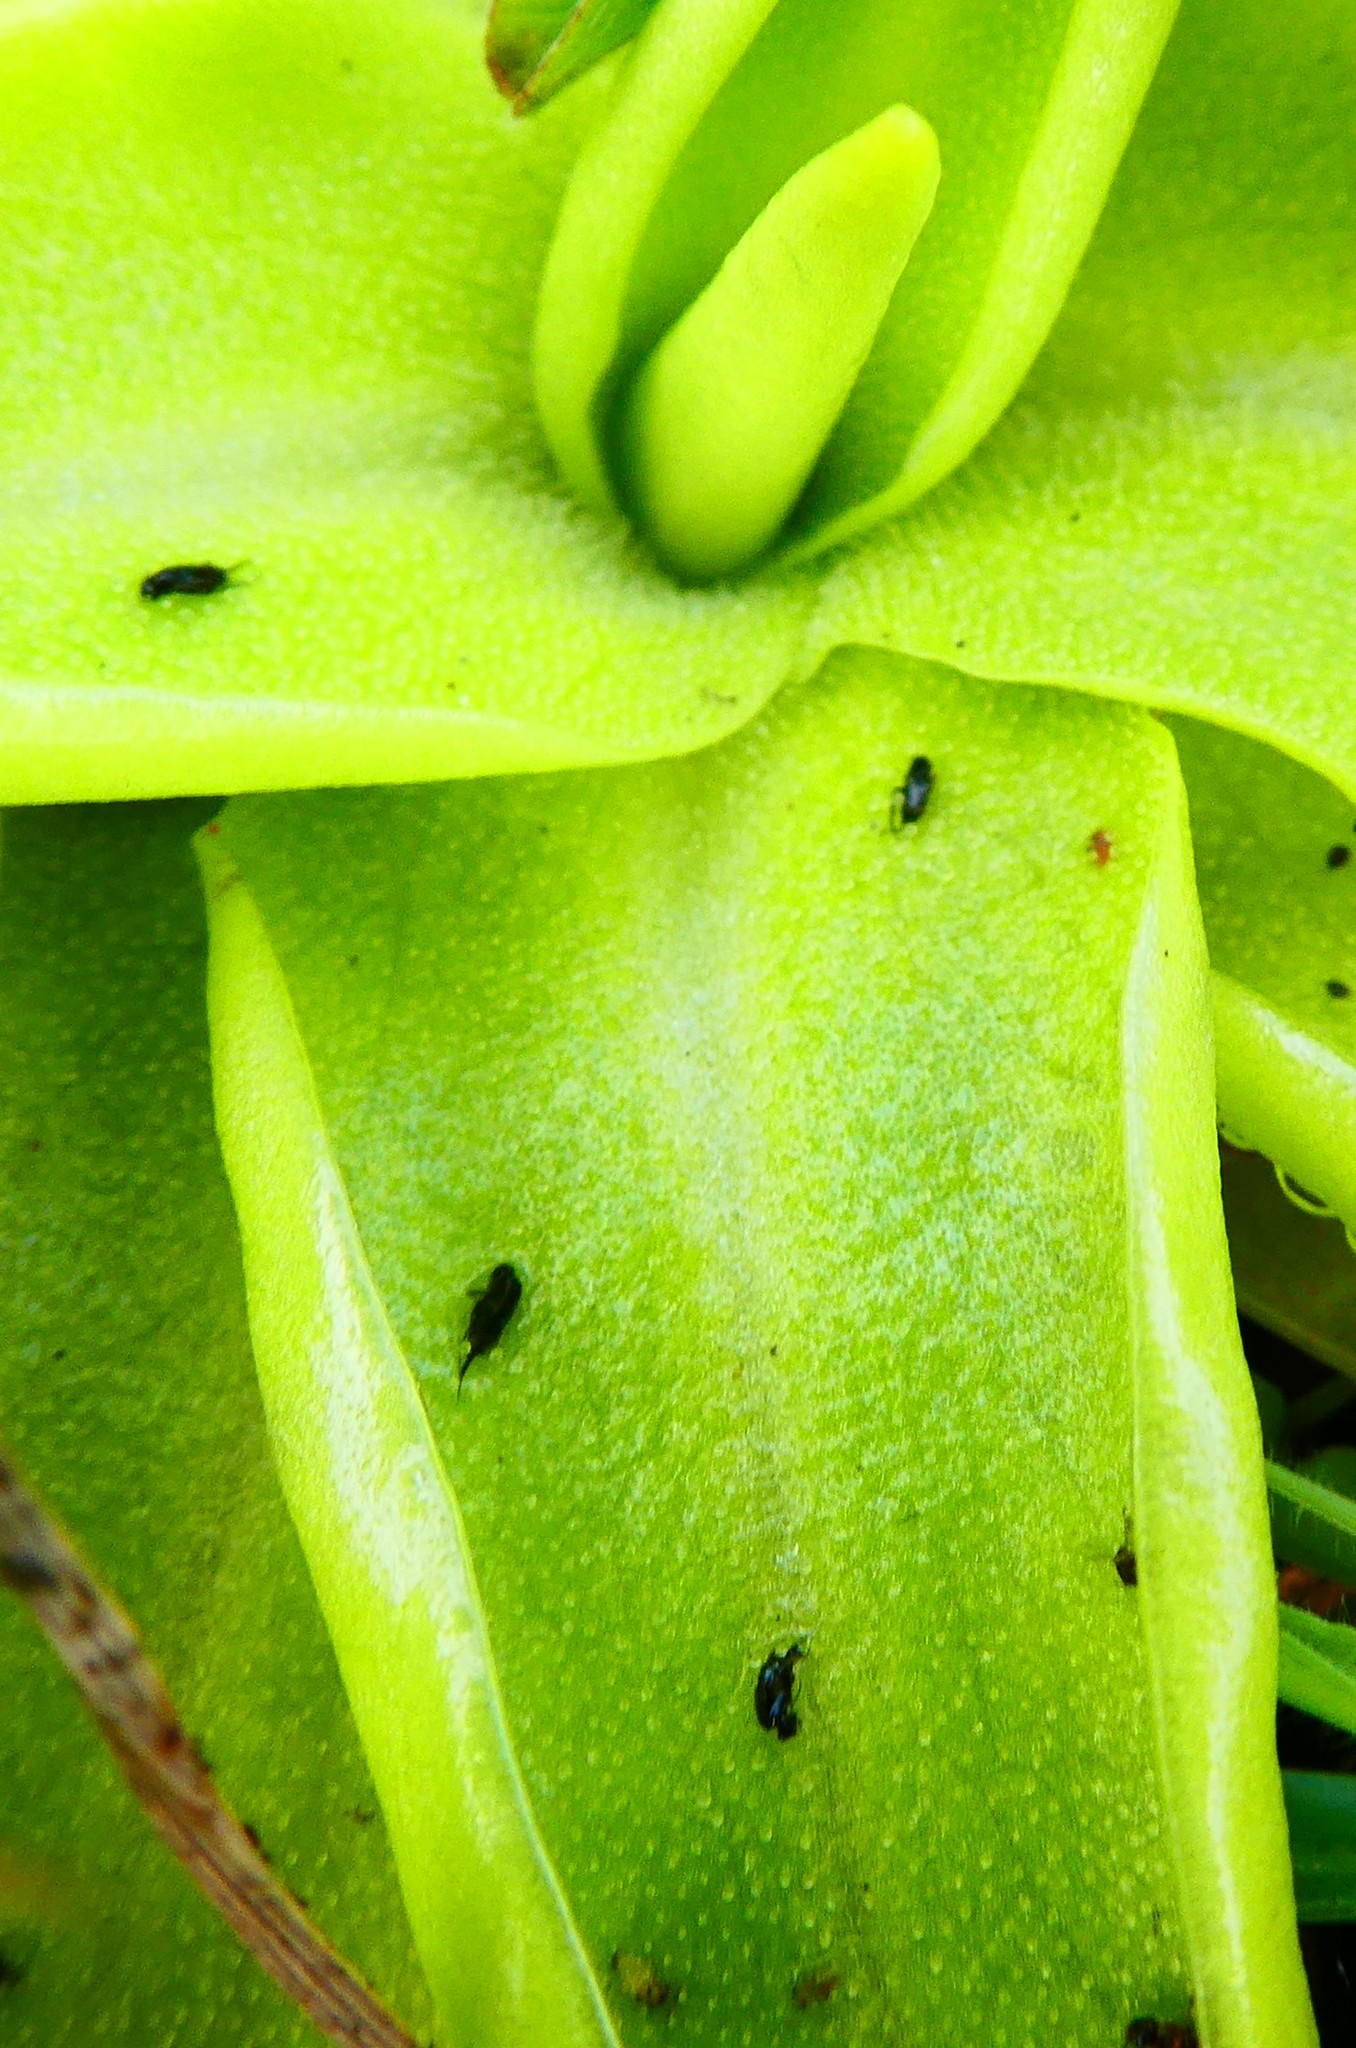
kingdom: Plantae
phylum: Tracheophyta
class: Magnoliopsida
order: Lamiales
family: Lentibulariaceae
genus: Pinguicula
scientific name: Pinguicula vulgaris
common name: Common butterwort
